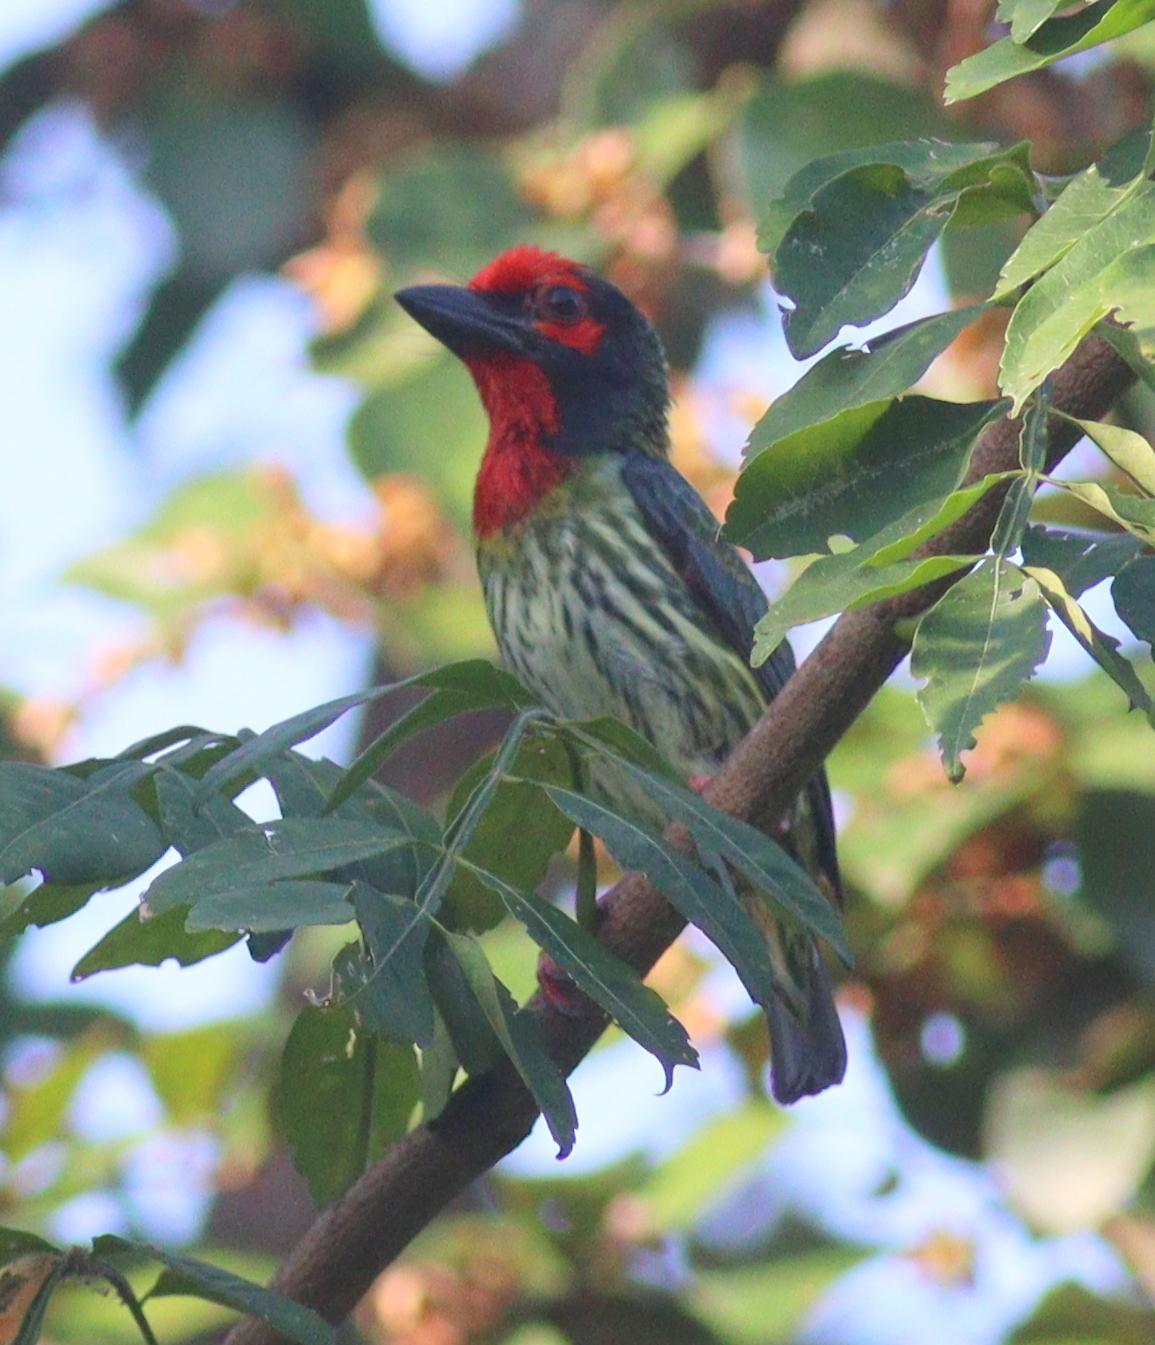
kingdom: Animalia
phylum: Chordata
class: Aves
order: Piciformes
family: Megalaimidae
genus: Psilopogon
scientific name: Psilopogon haemacephalus
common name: Coppersmith barbet
